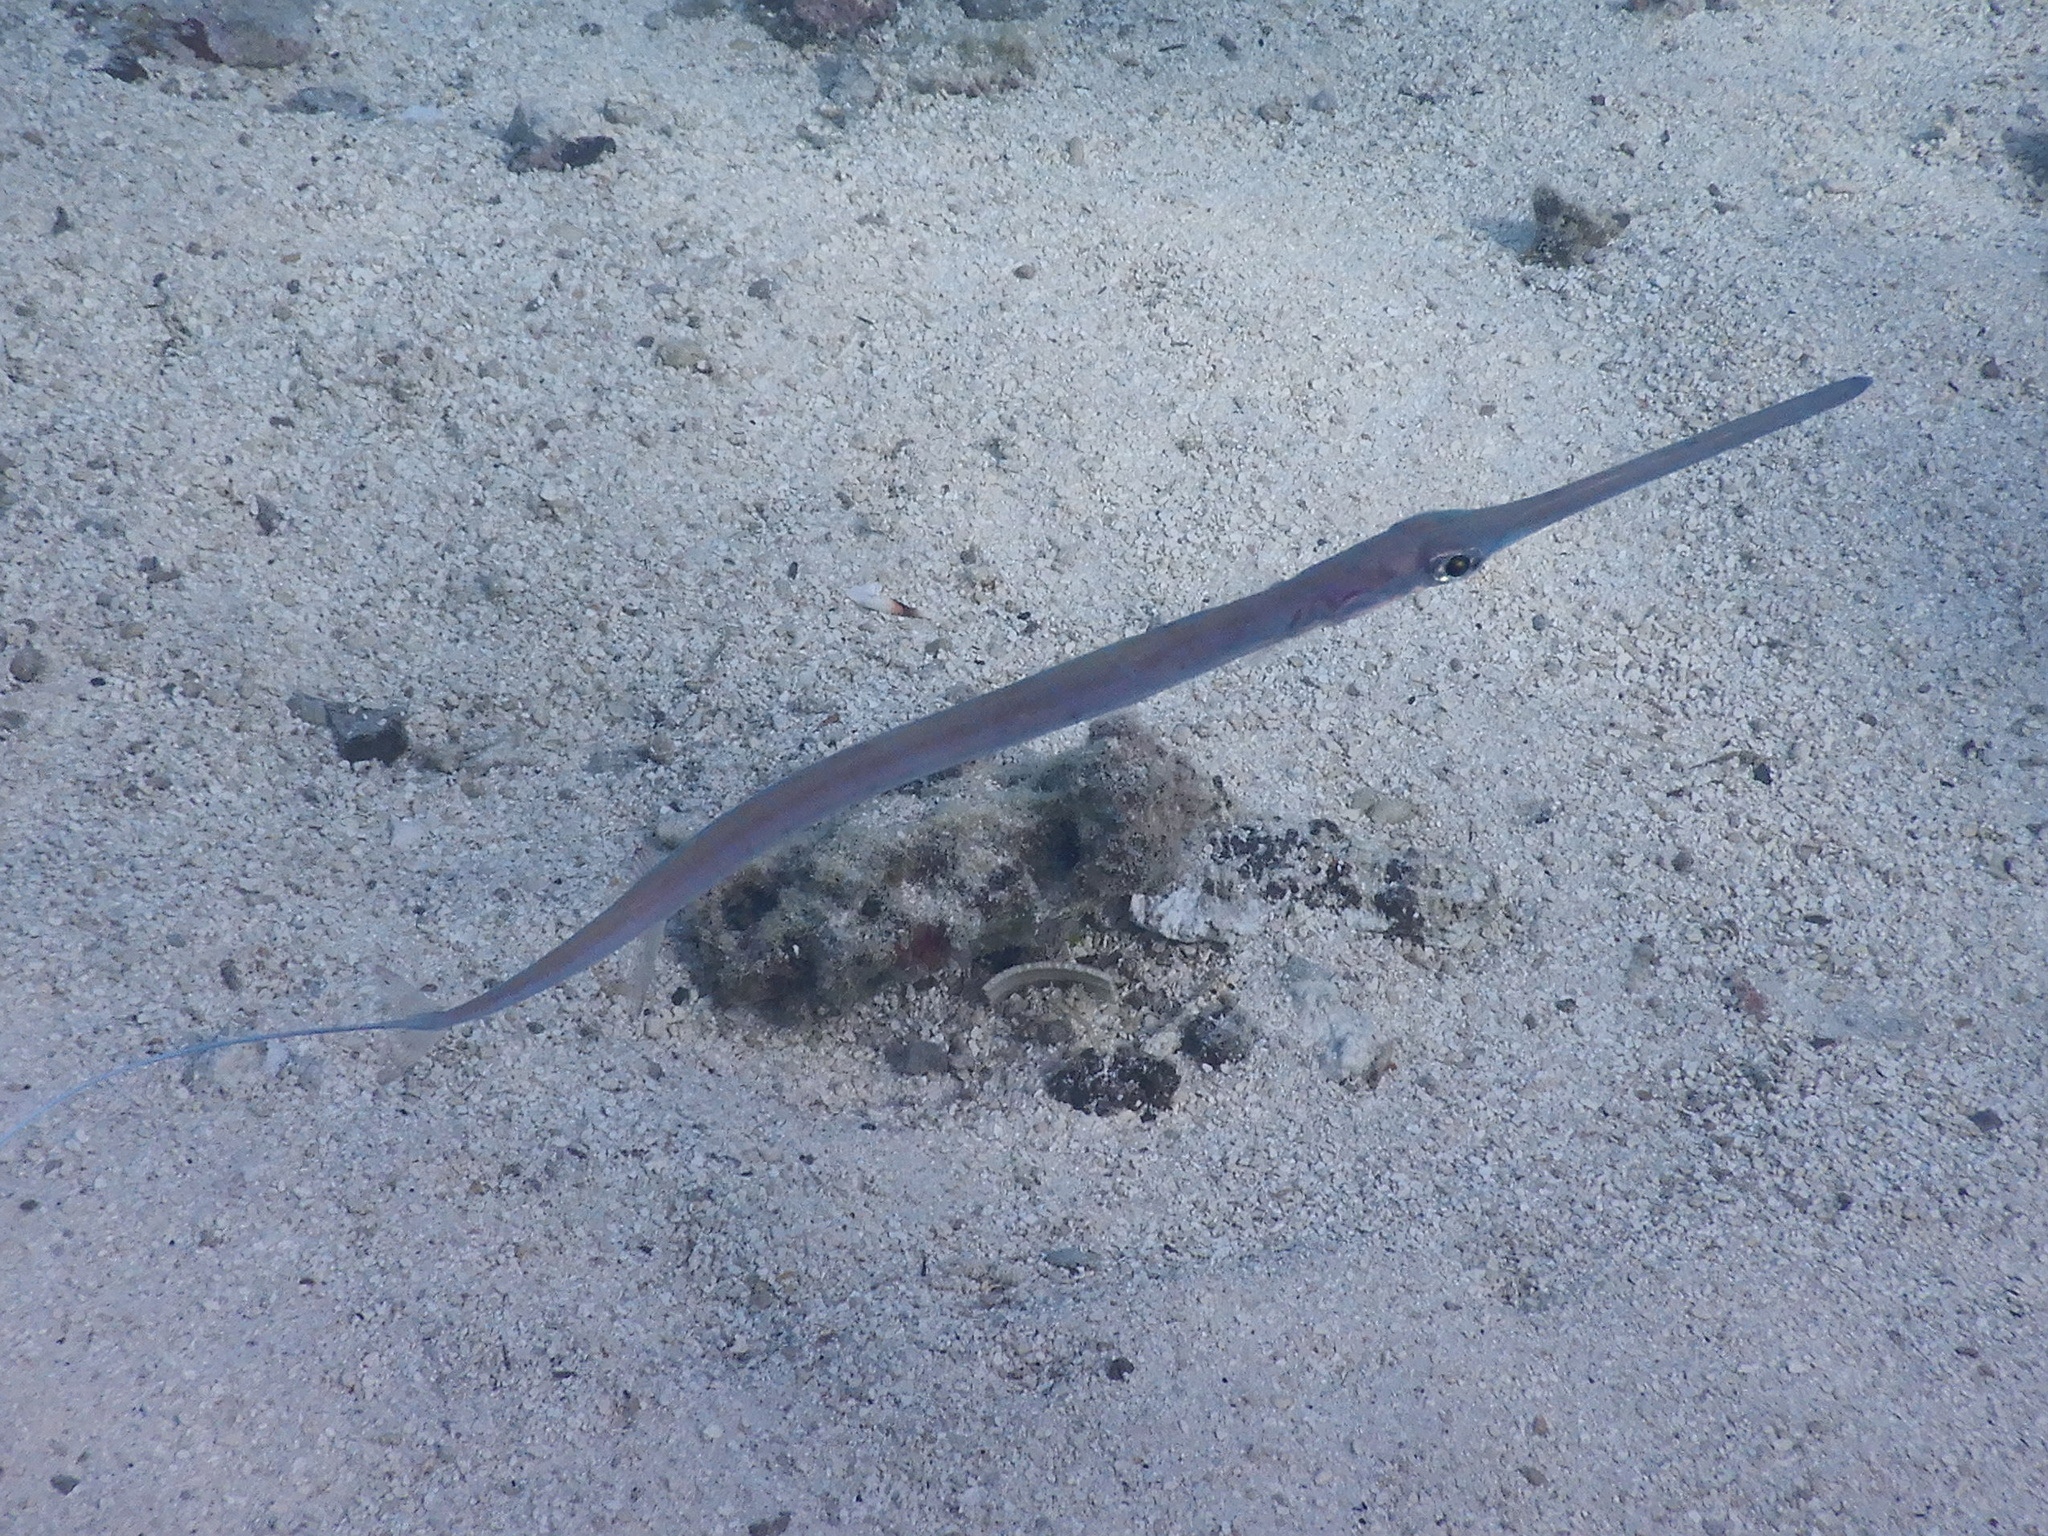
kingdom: Animalia
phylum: Chordata
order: Syngnathiformes
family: Fistulariidae
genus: Fistularia
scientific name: Fistularia commersonii
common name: Bluespotted cornetfish
